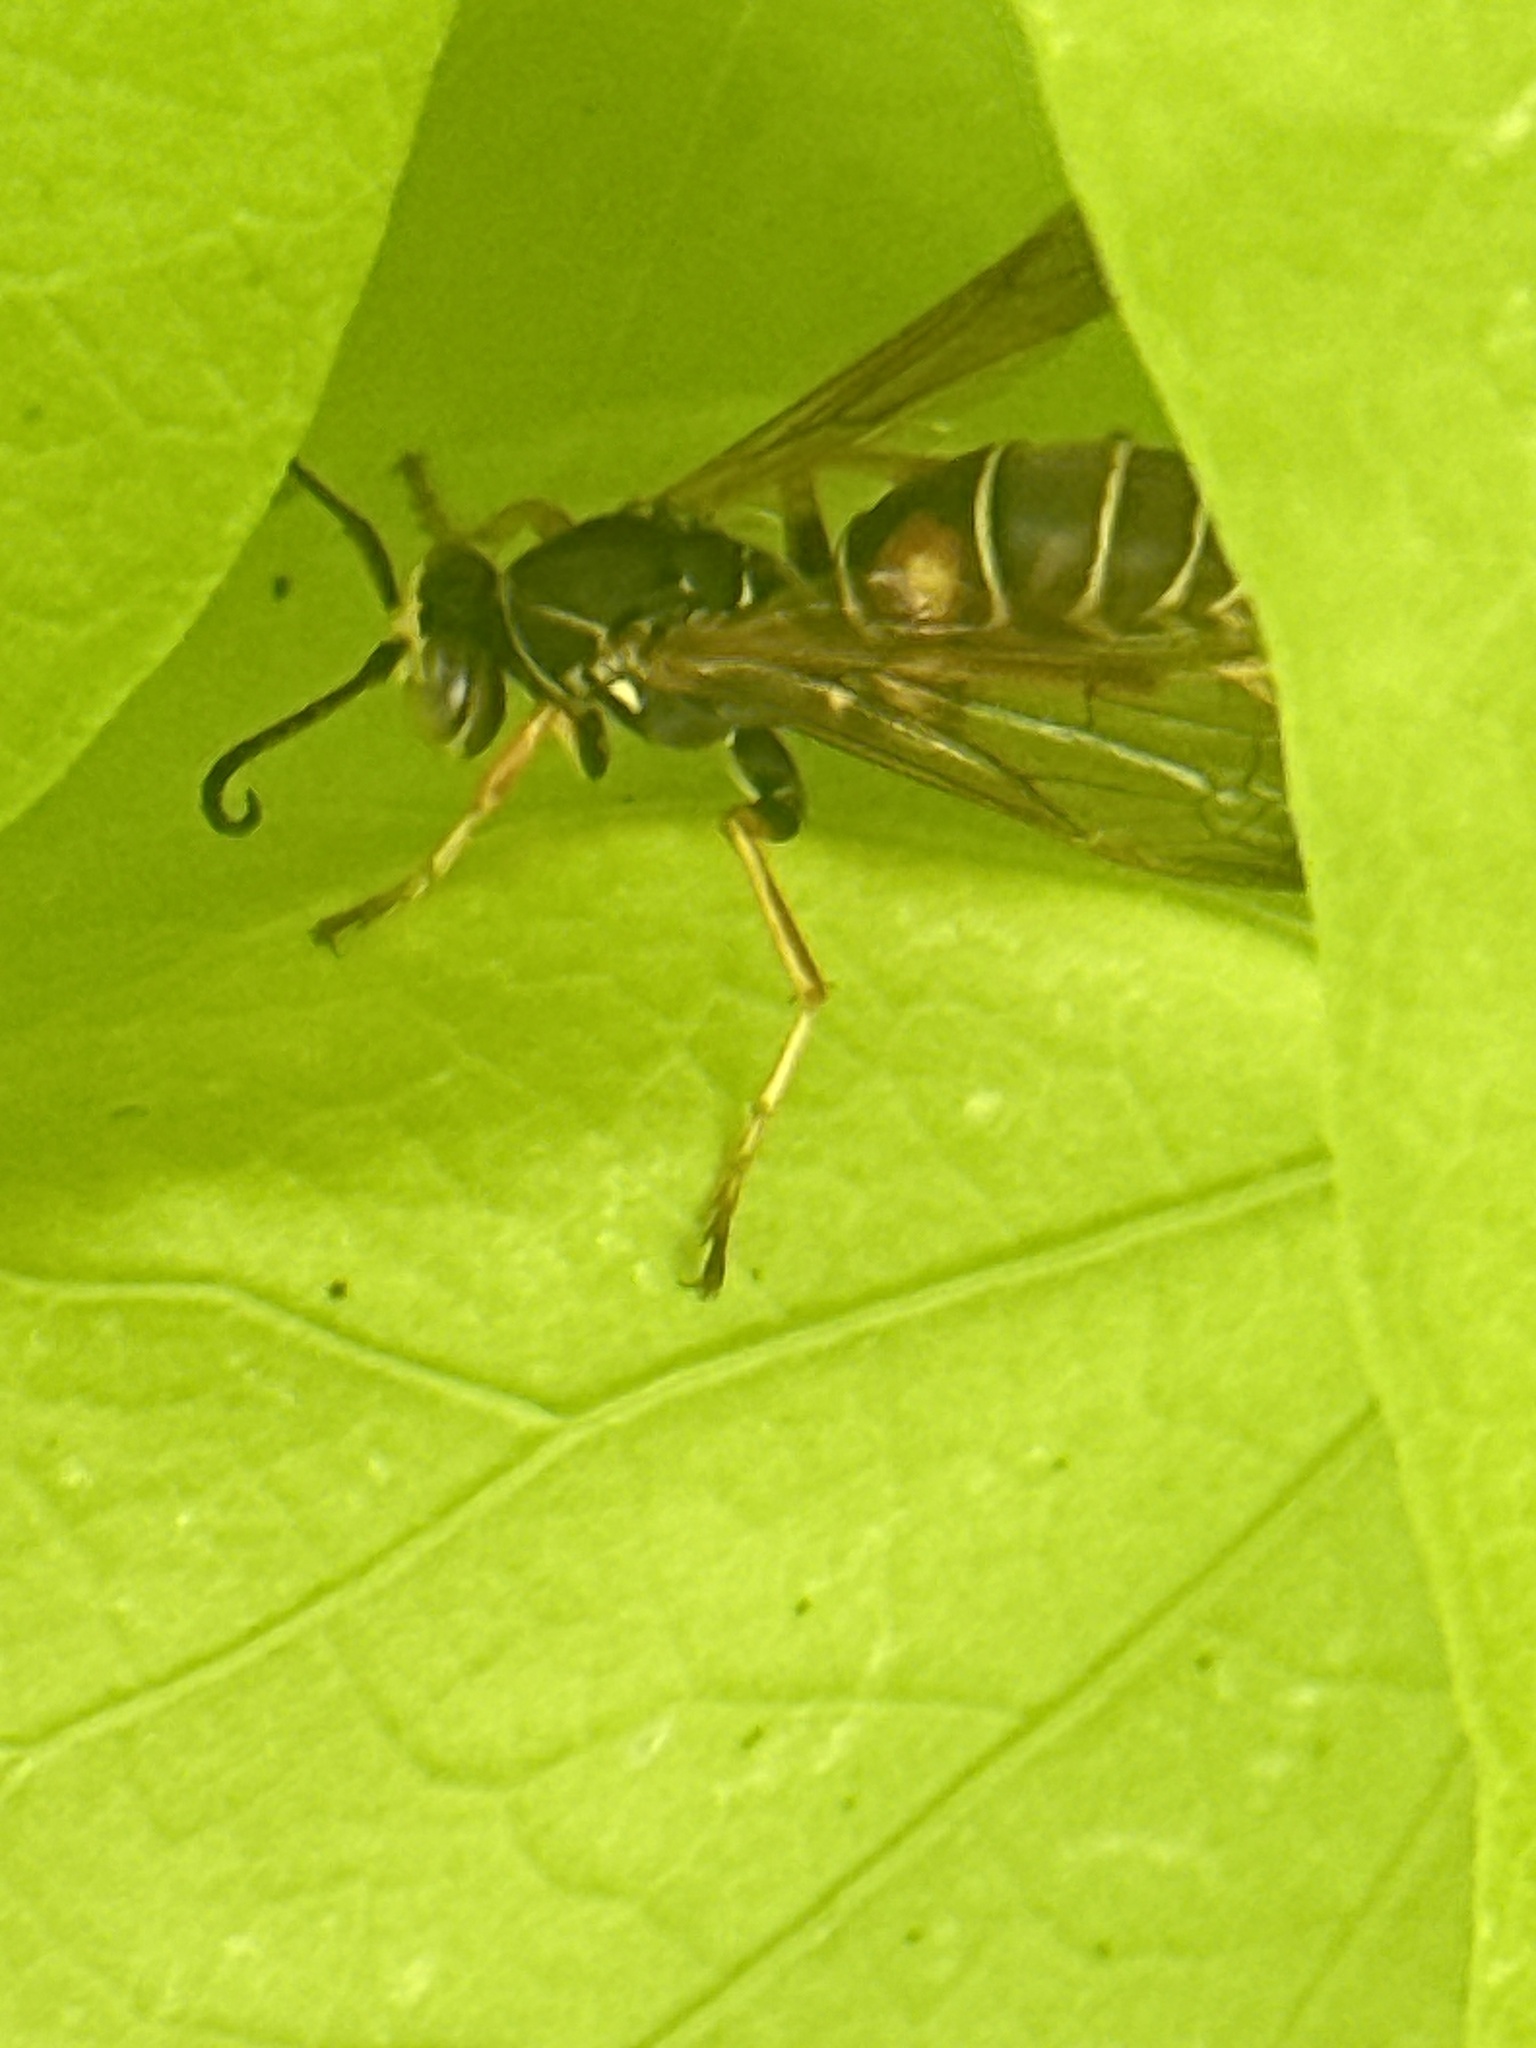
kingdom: Animalia
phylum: Arthropoda
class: Insecta
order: Hymenoptera
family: Eumenidae
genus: Polistes
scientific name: Polistes fuscatus
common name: Dark paper wasp
